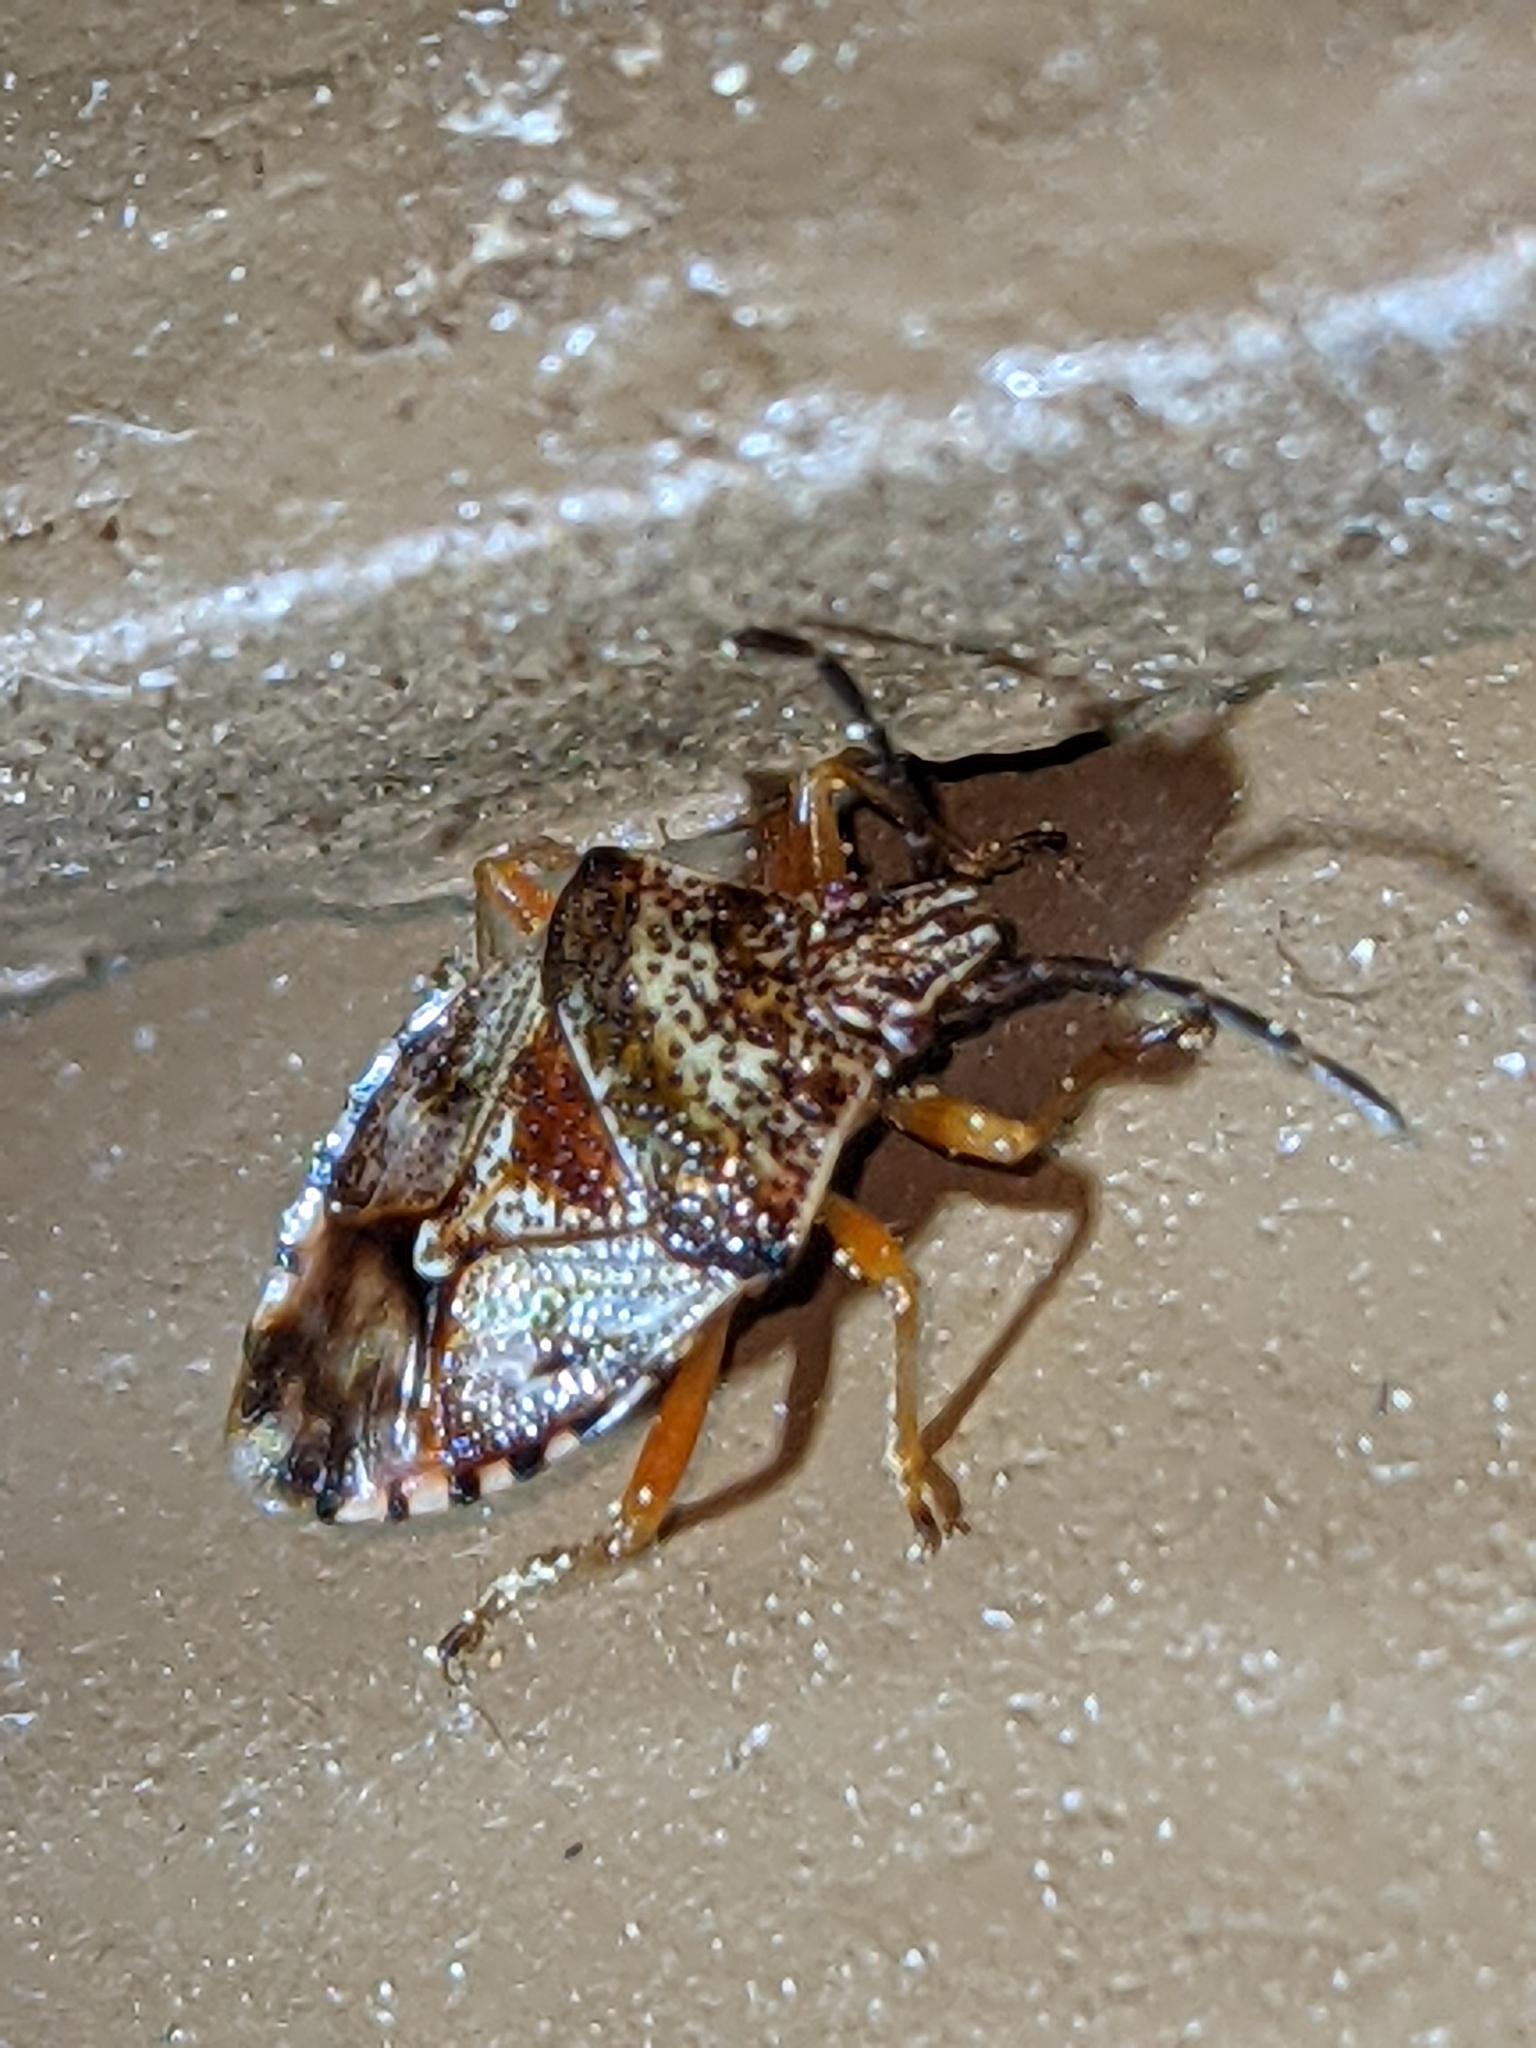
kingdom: Animalia
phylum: Arthropoda
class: Insecta
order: Hemiptera
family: Acanthosomatidae
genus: Elasmucha
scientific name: Elasmucha lateralis
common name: Shield bug
